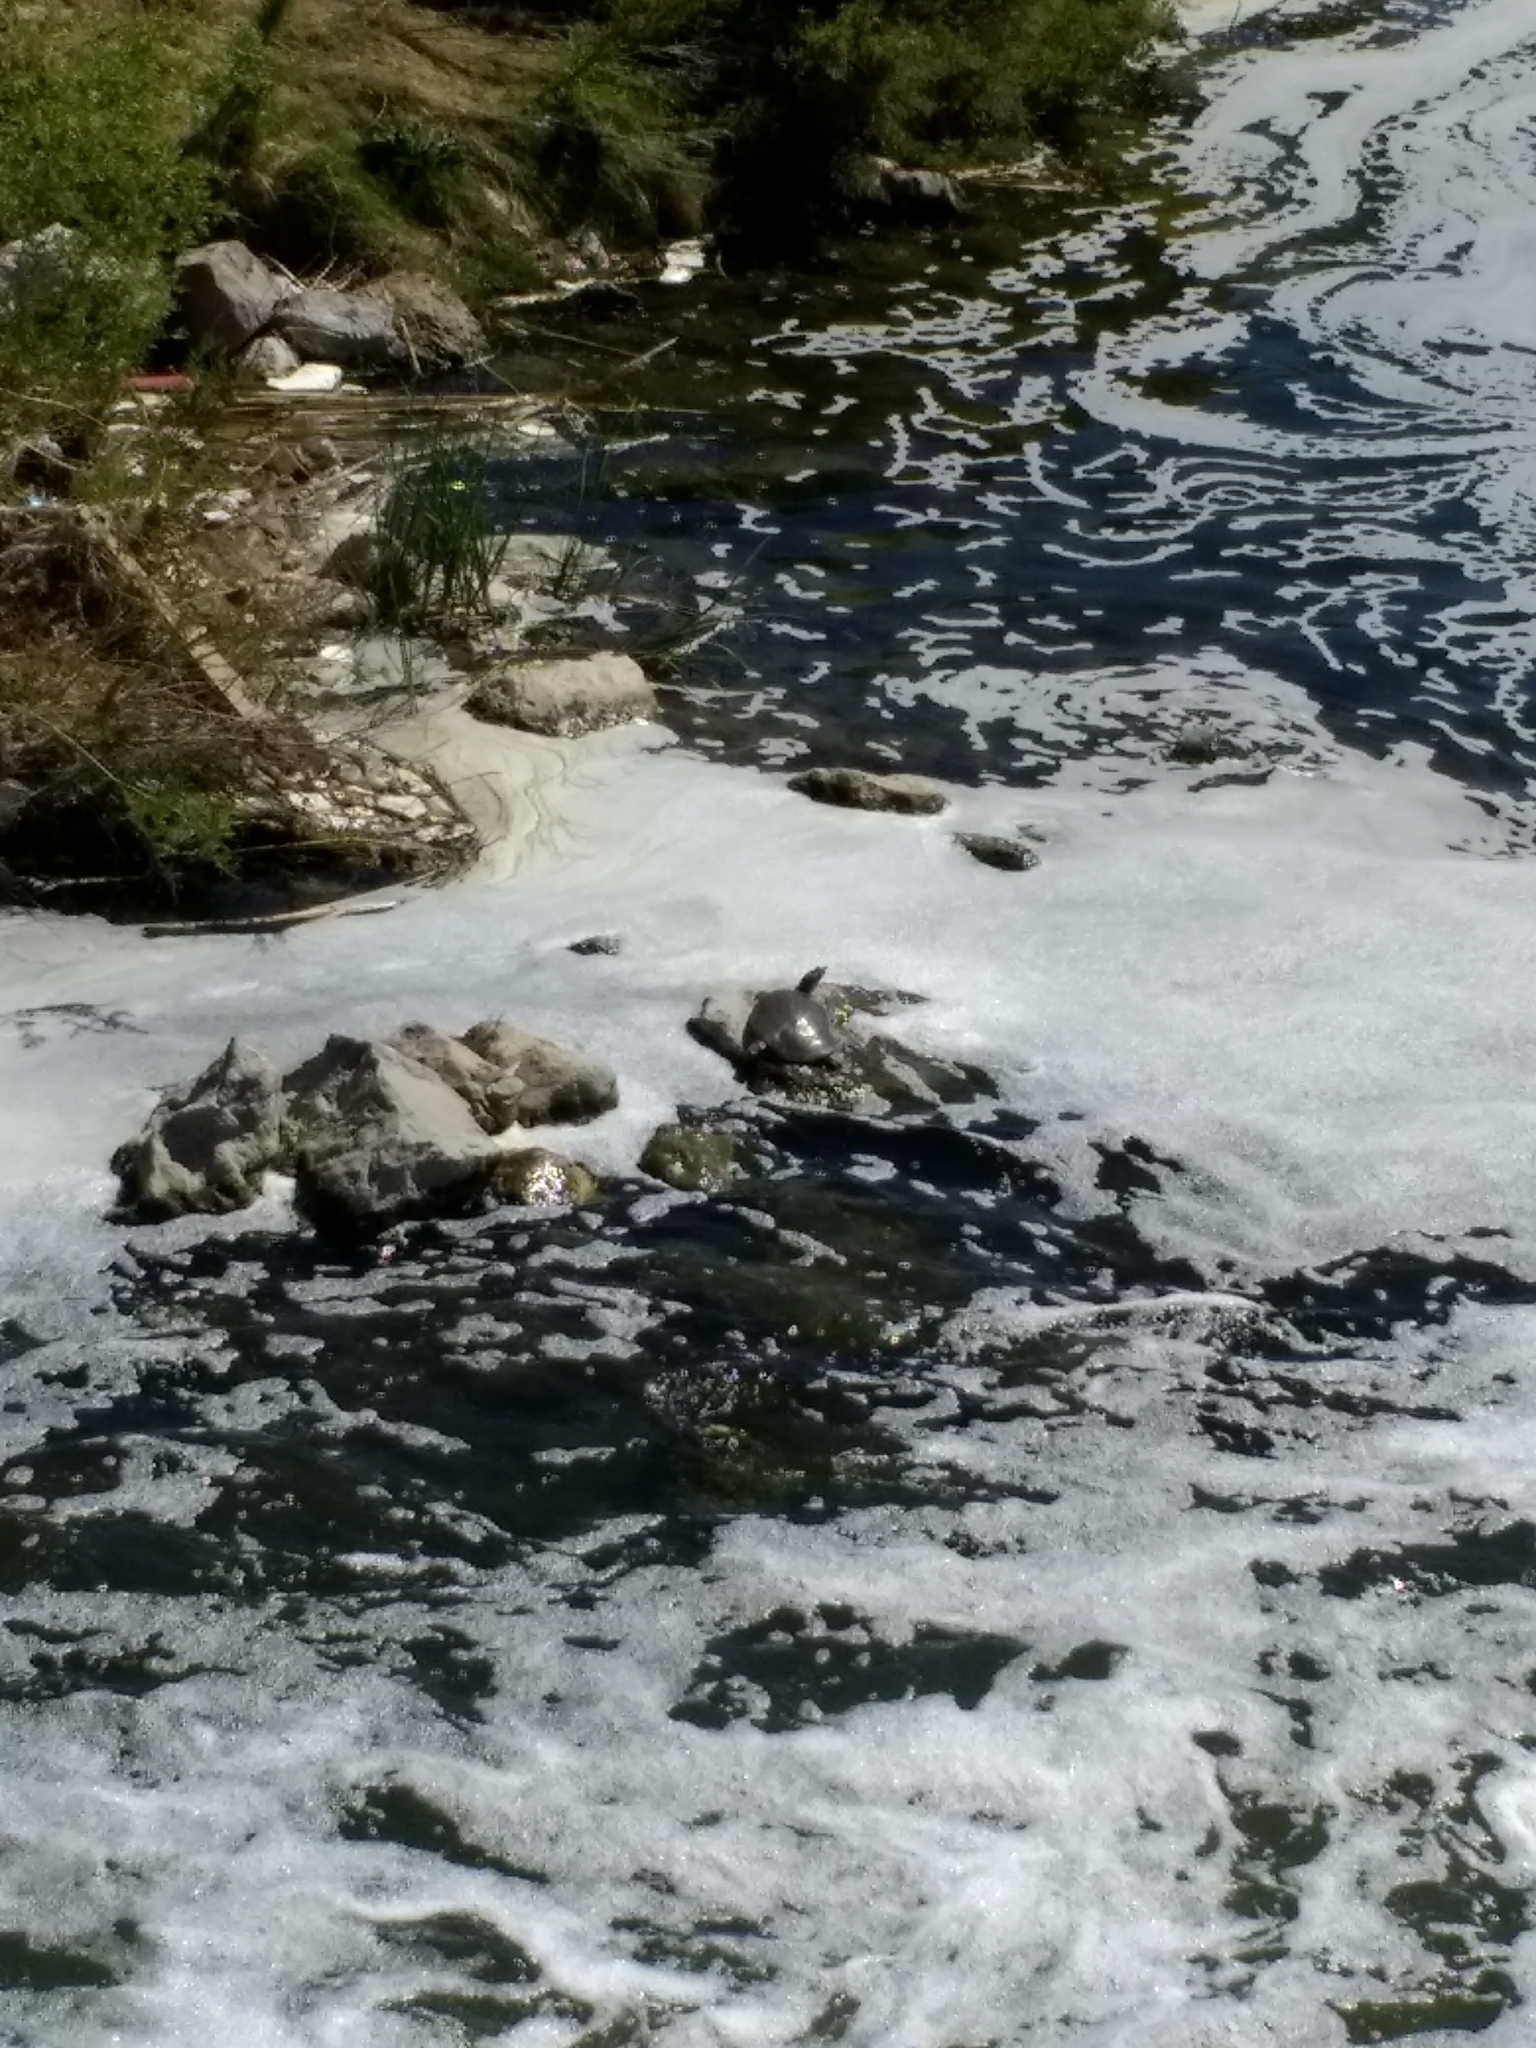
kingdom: Animalia
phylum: Chordata
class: Testudines
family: Trionychidae
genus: Apalone
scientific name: Apalone spinifera
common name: Spiny softshell turtle
